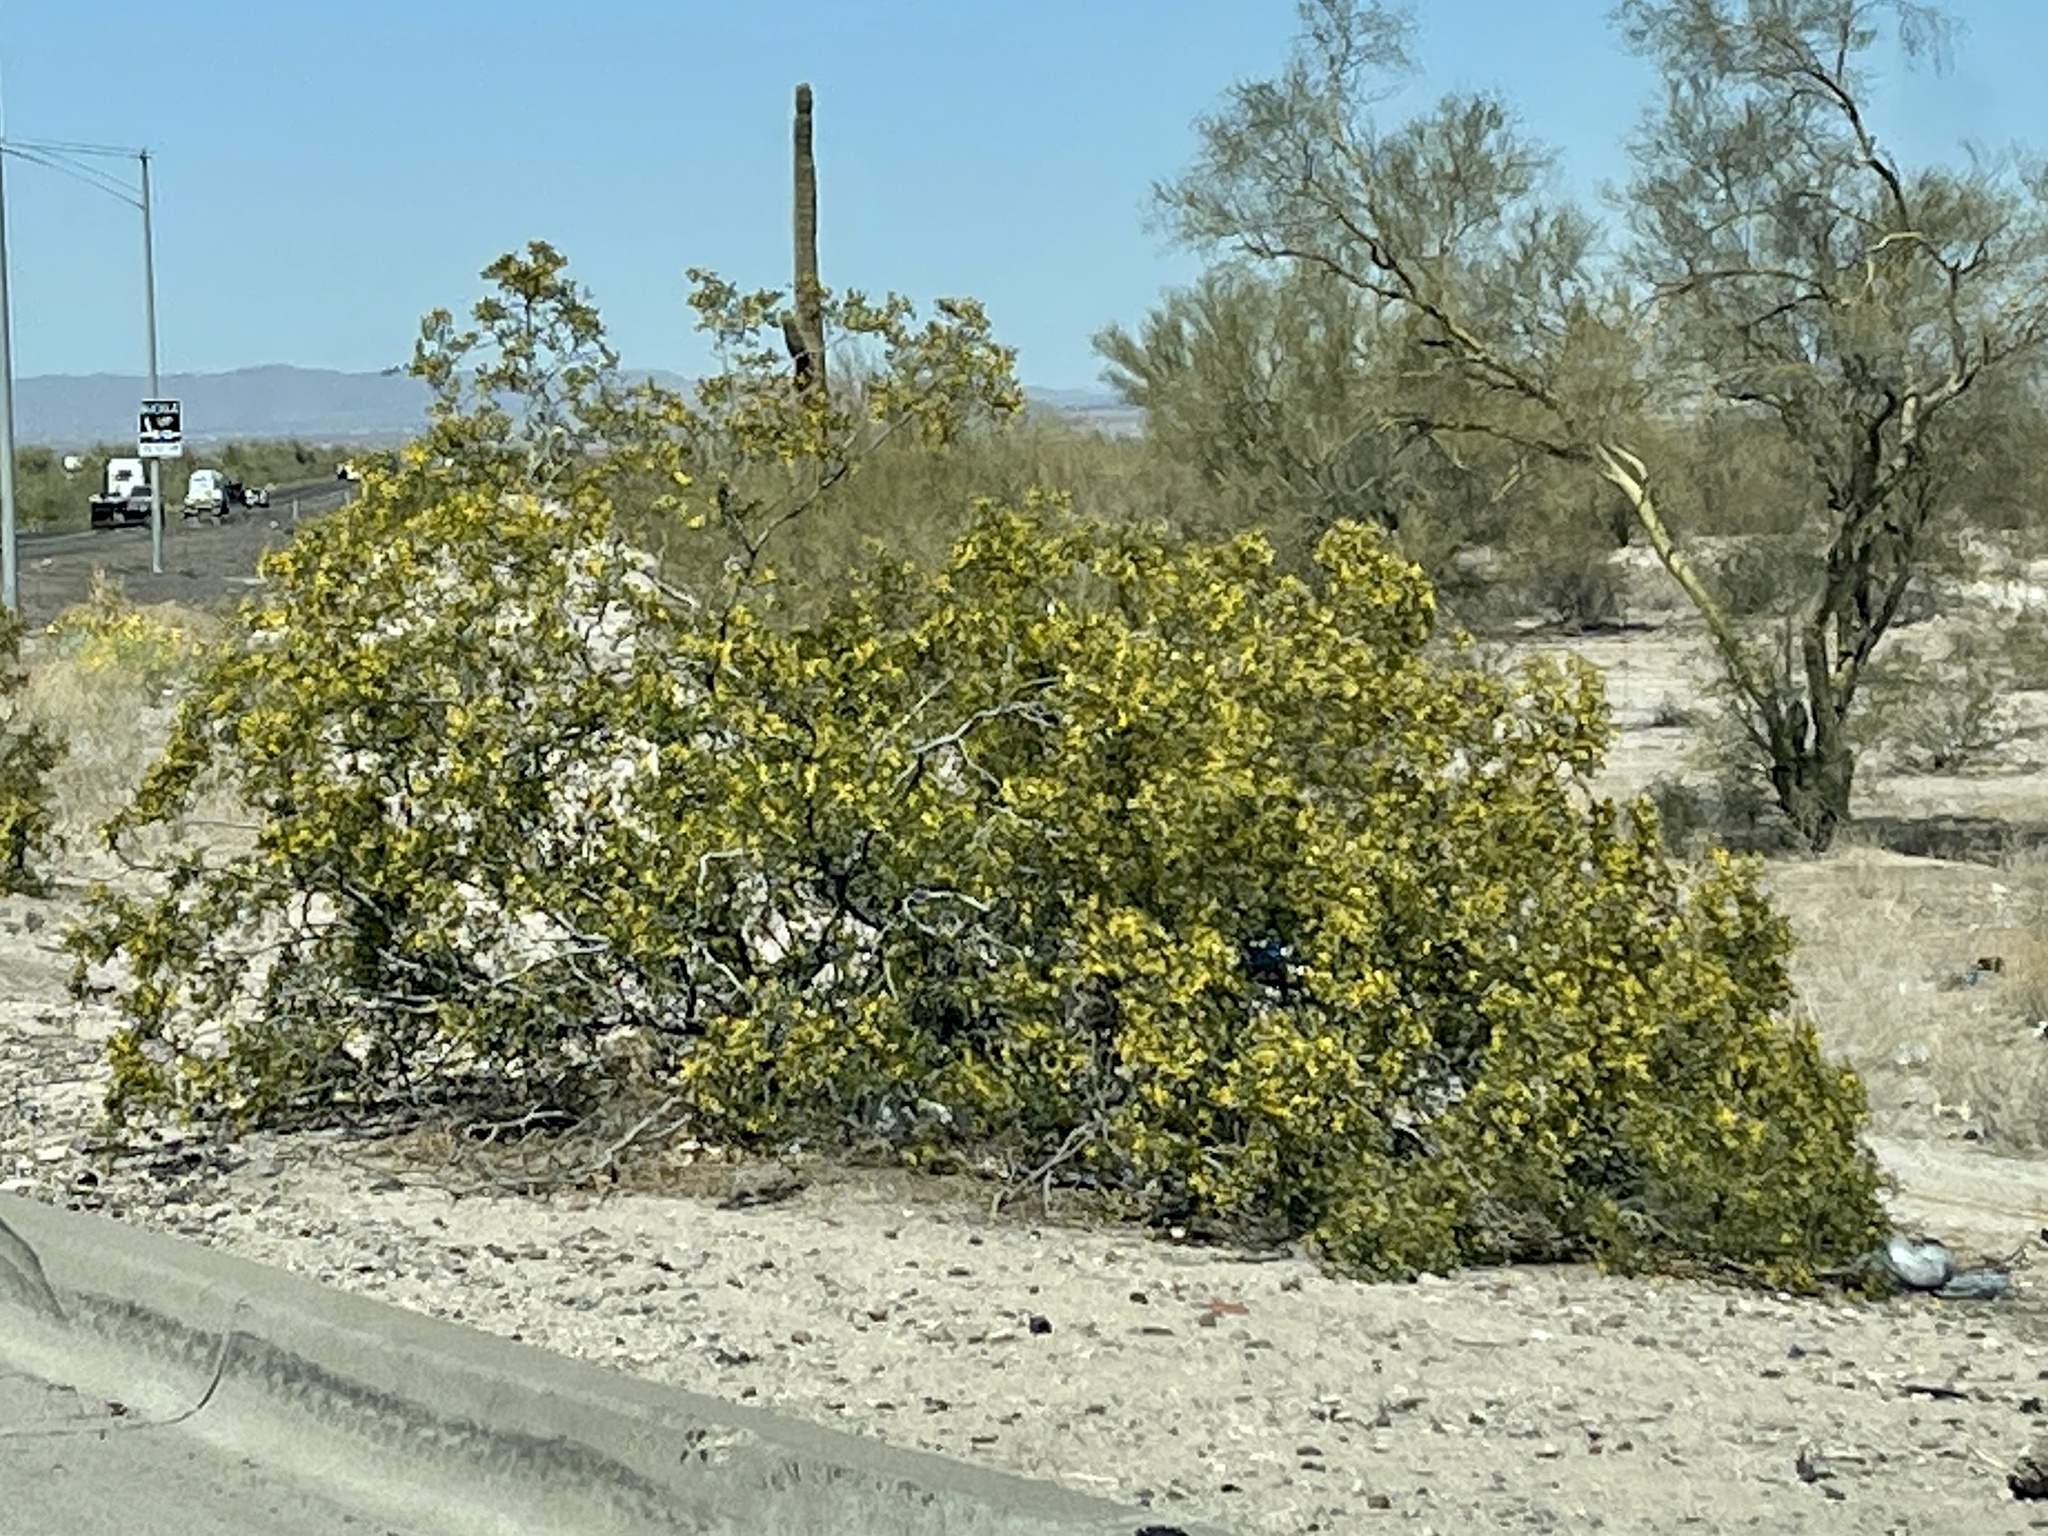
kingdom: Plantae
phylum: Tracheophyta
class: Magnoliopsida
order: Zygophyllales
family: Zygophyllaceae
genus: Larrea
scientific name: Larrea tridentata
